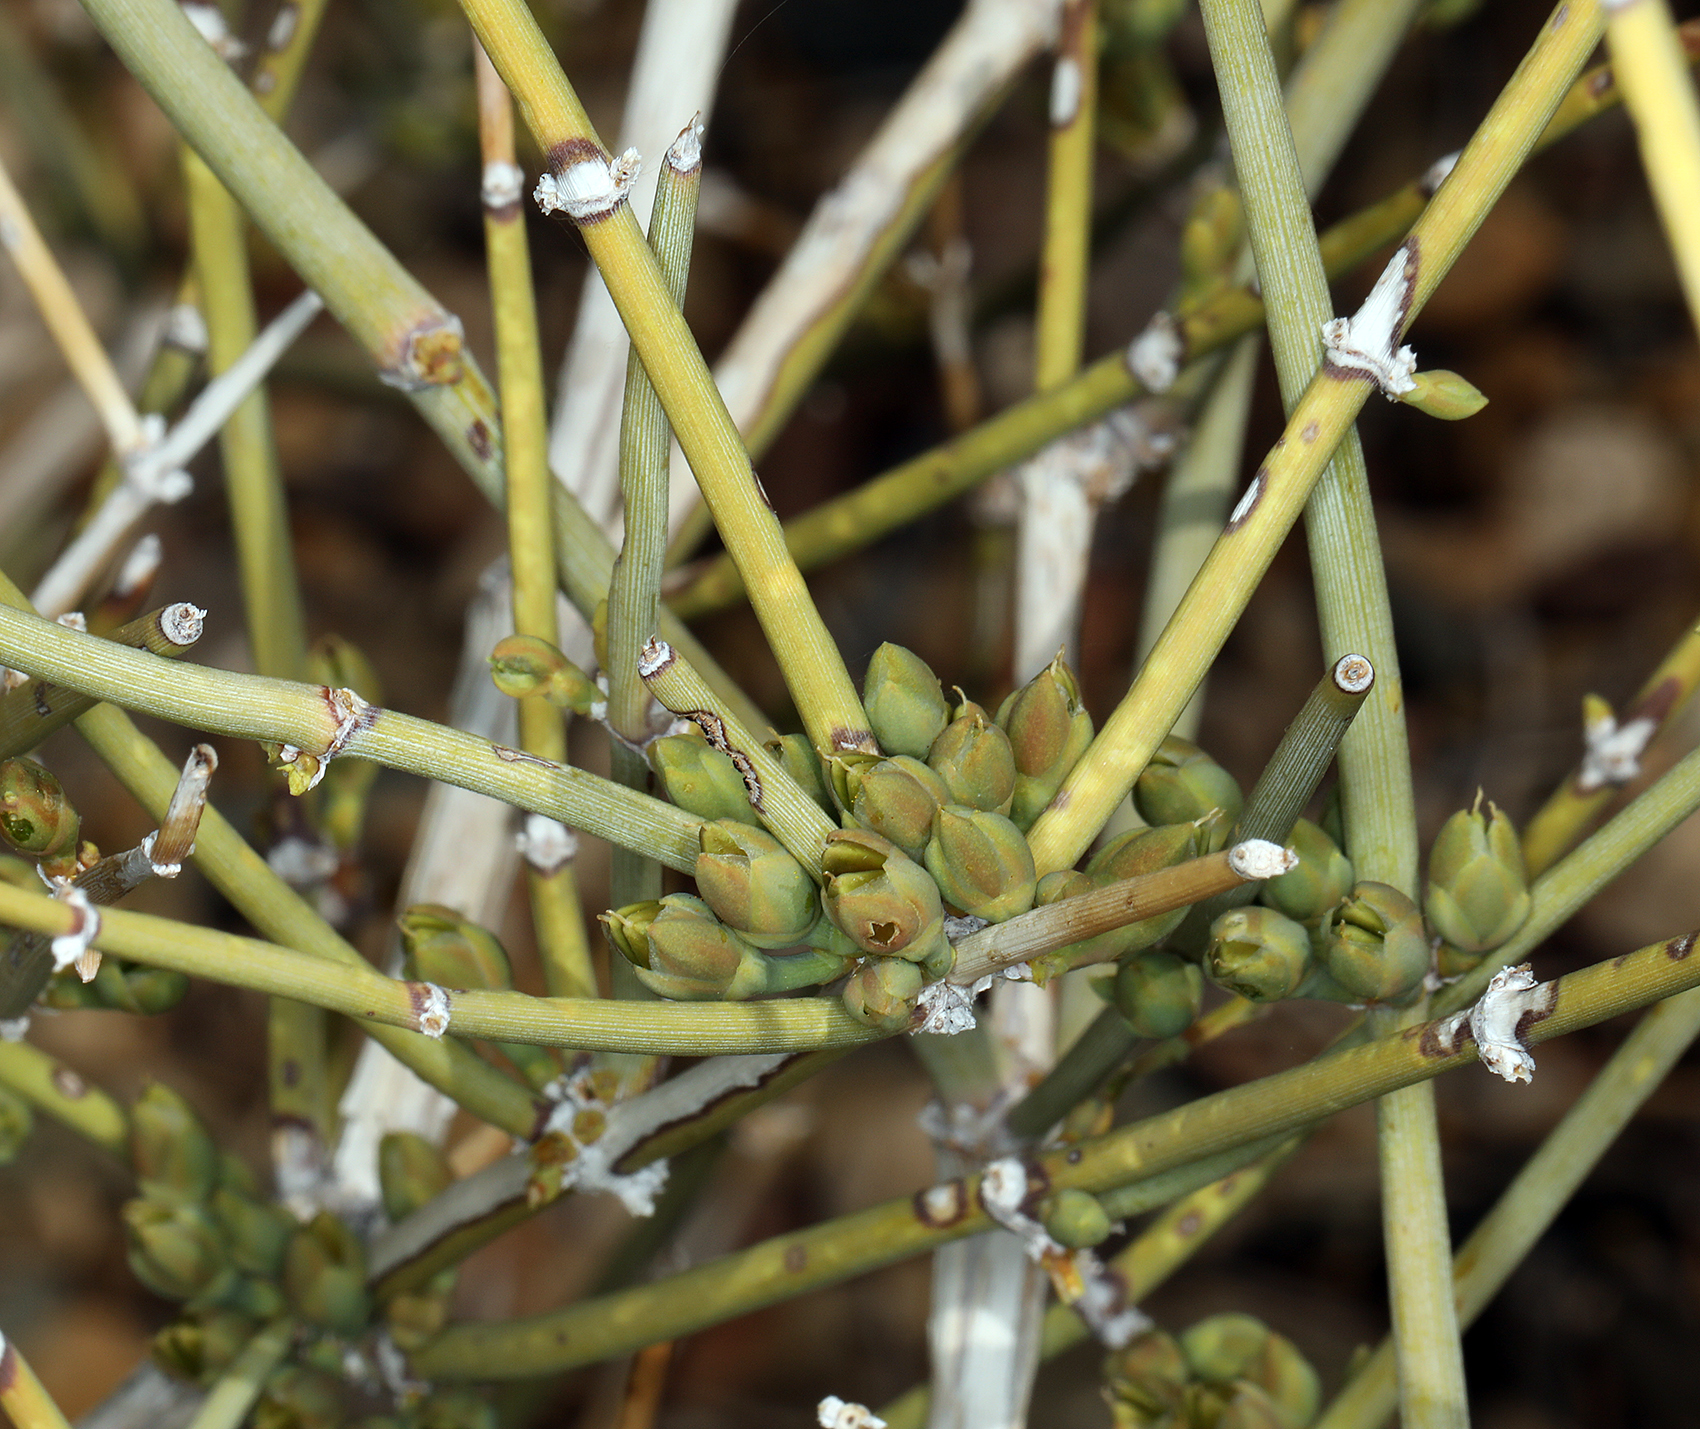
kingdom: Plantae
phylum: Tracheophyta
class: Gnetopsida
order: Ephedrales
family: Ephedraceae
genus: Ephedra
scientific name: Ephedra nevadensis
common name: Gray ephedra
